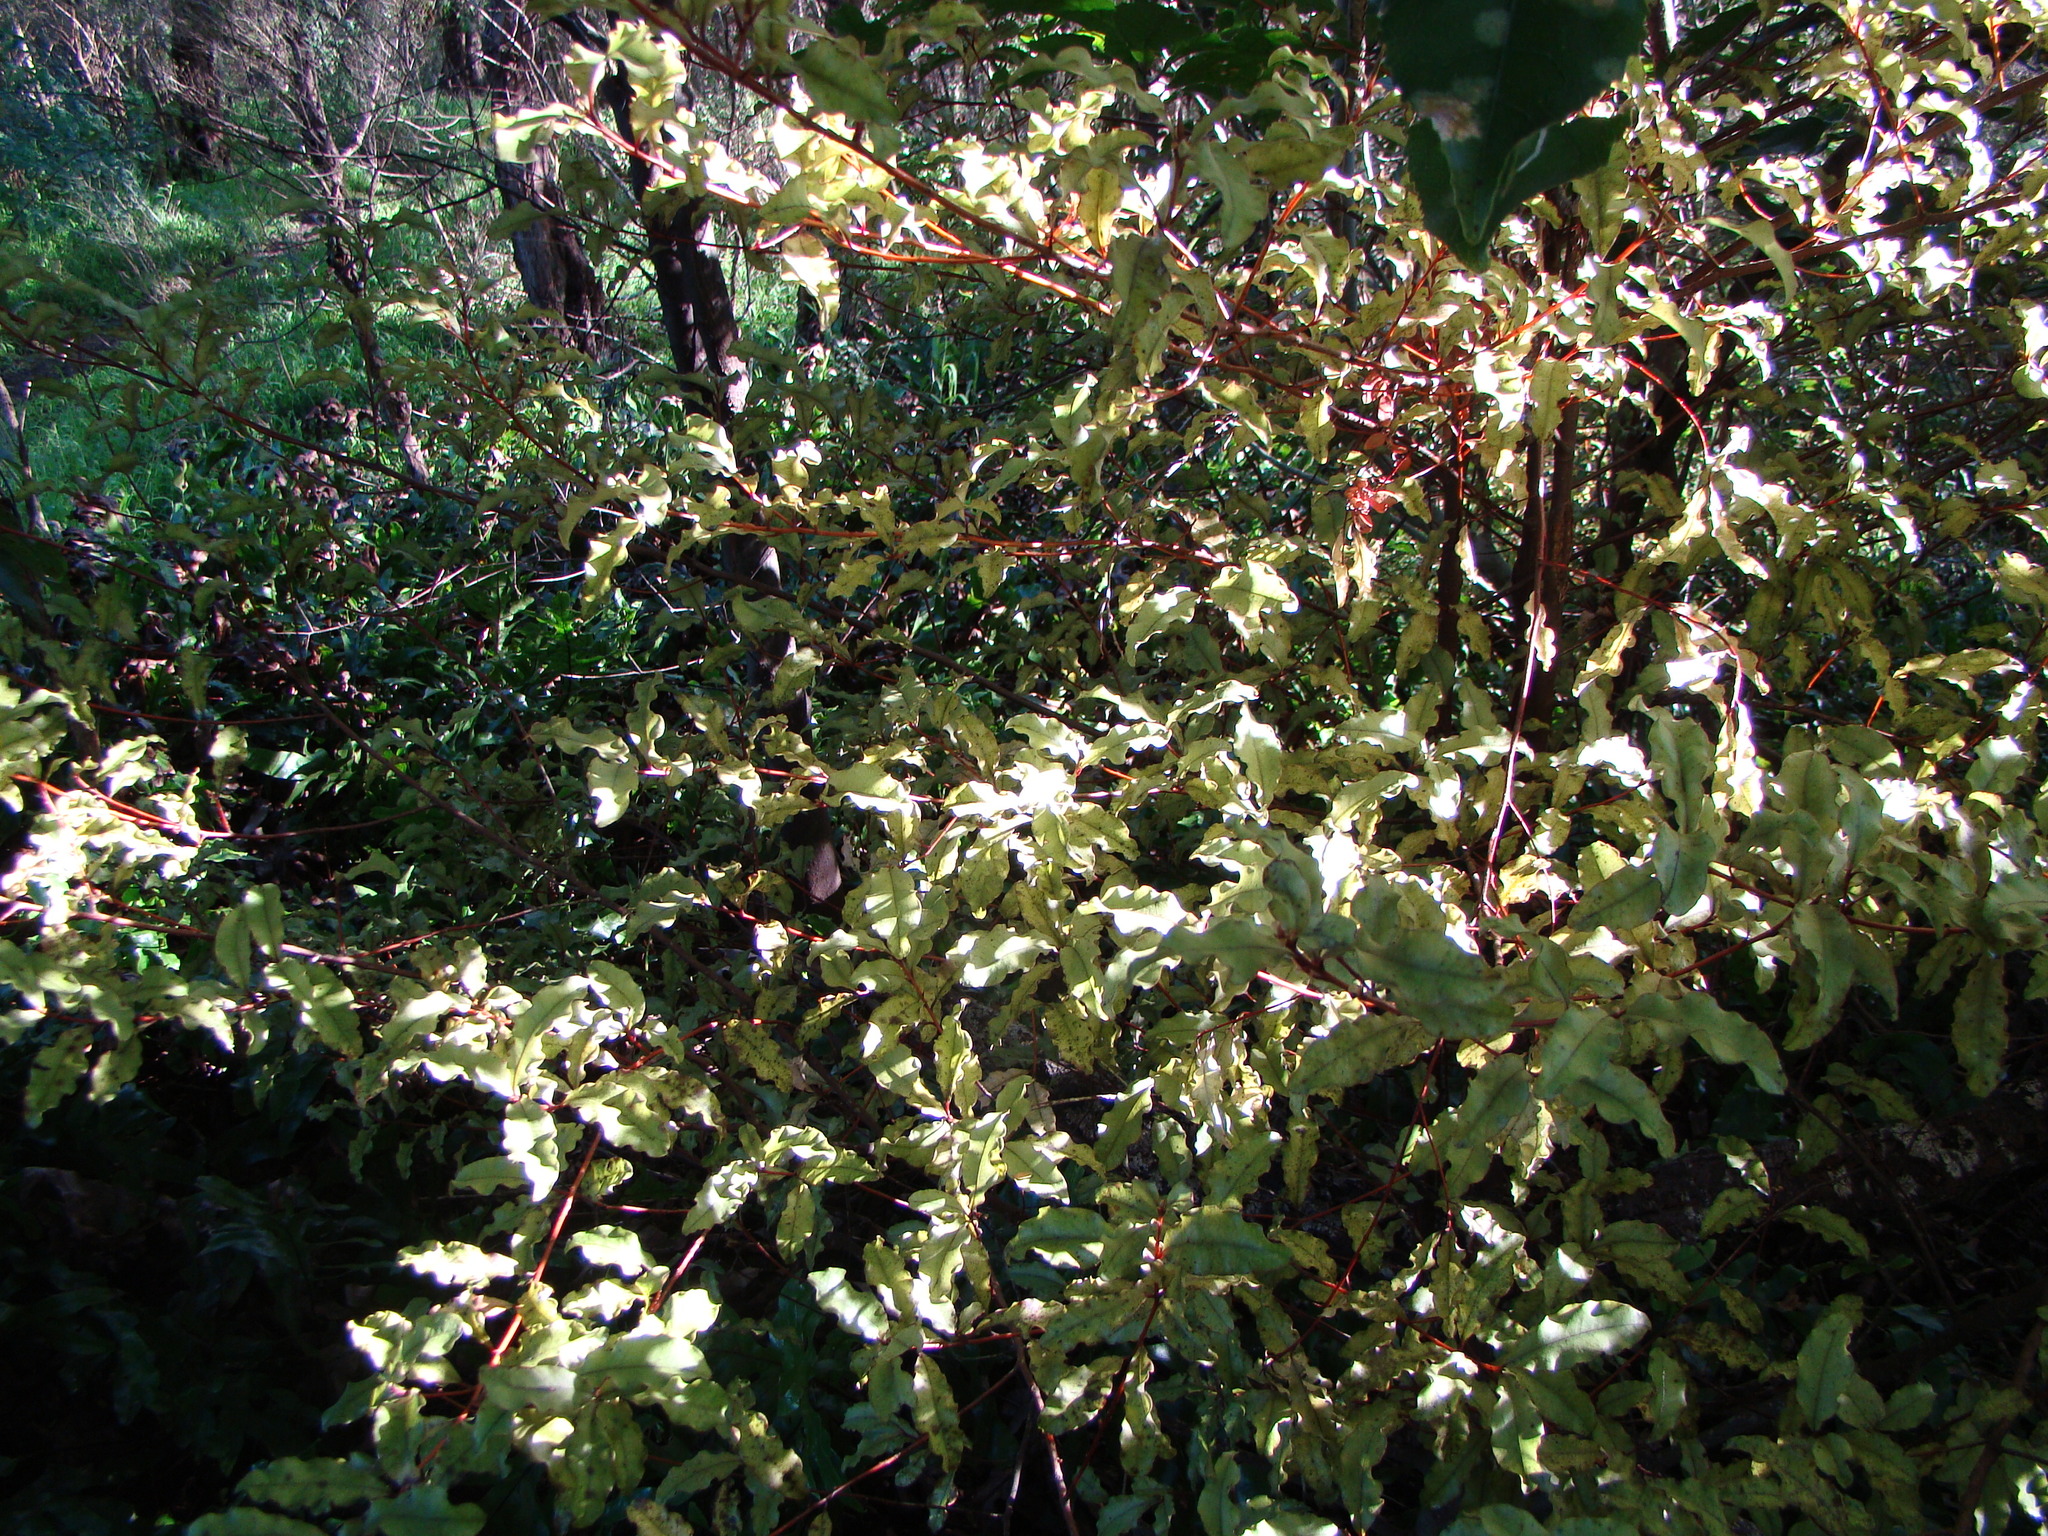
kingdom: Plantae
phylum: Tracheophyta
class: Magnoliopsida
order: Ericales
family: Primulaceae
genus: Myrsine
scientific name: Myrsine australis
